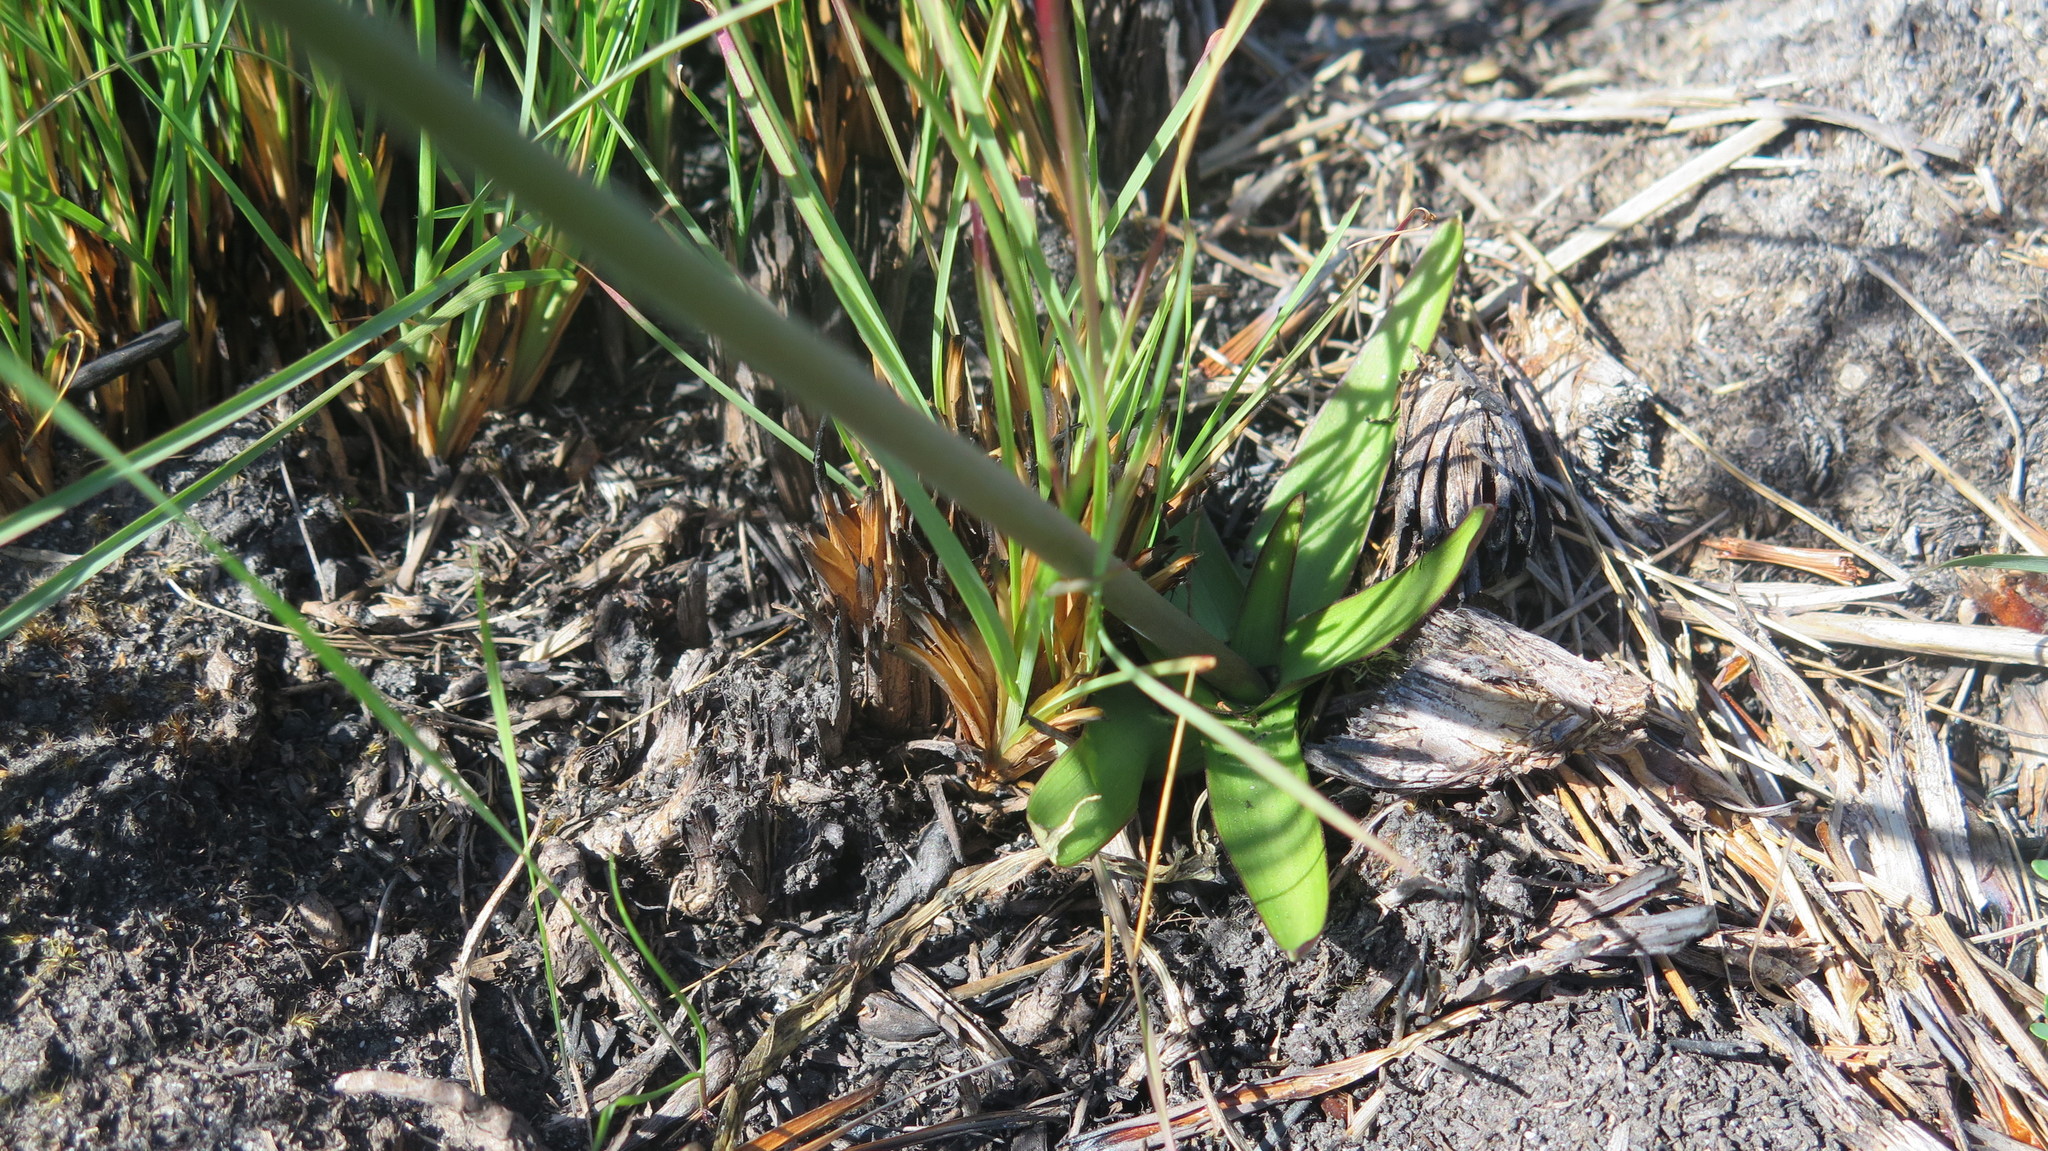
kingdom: Plantae
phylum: Tracheophyta
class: Liliopsida
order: Asparagales
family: Asphodelaceae
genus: Trachyandra
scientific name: Trachyandra affinis
